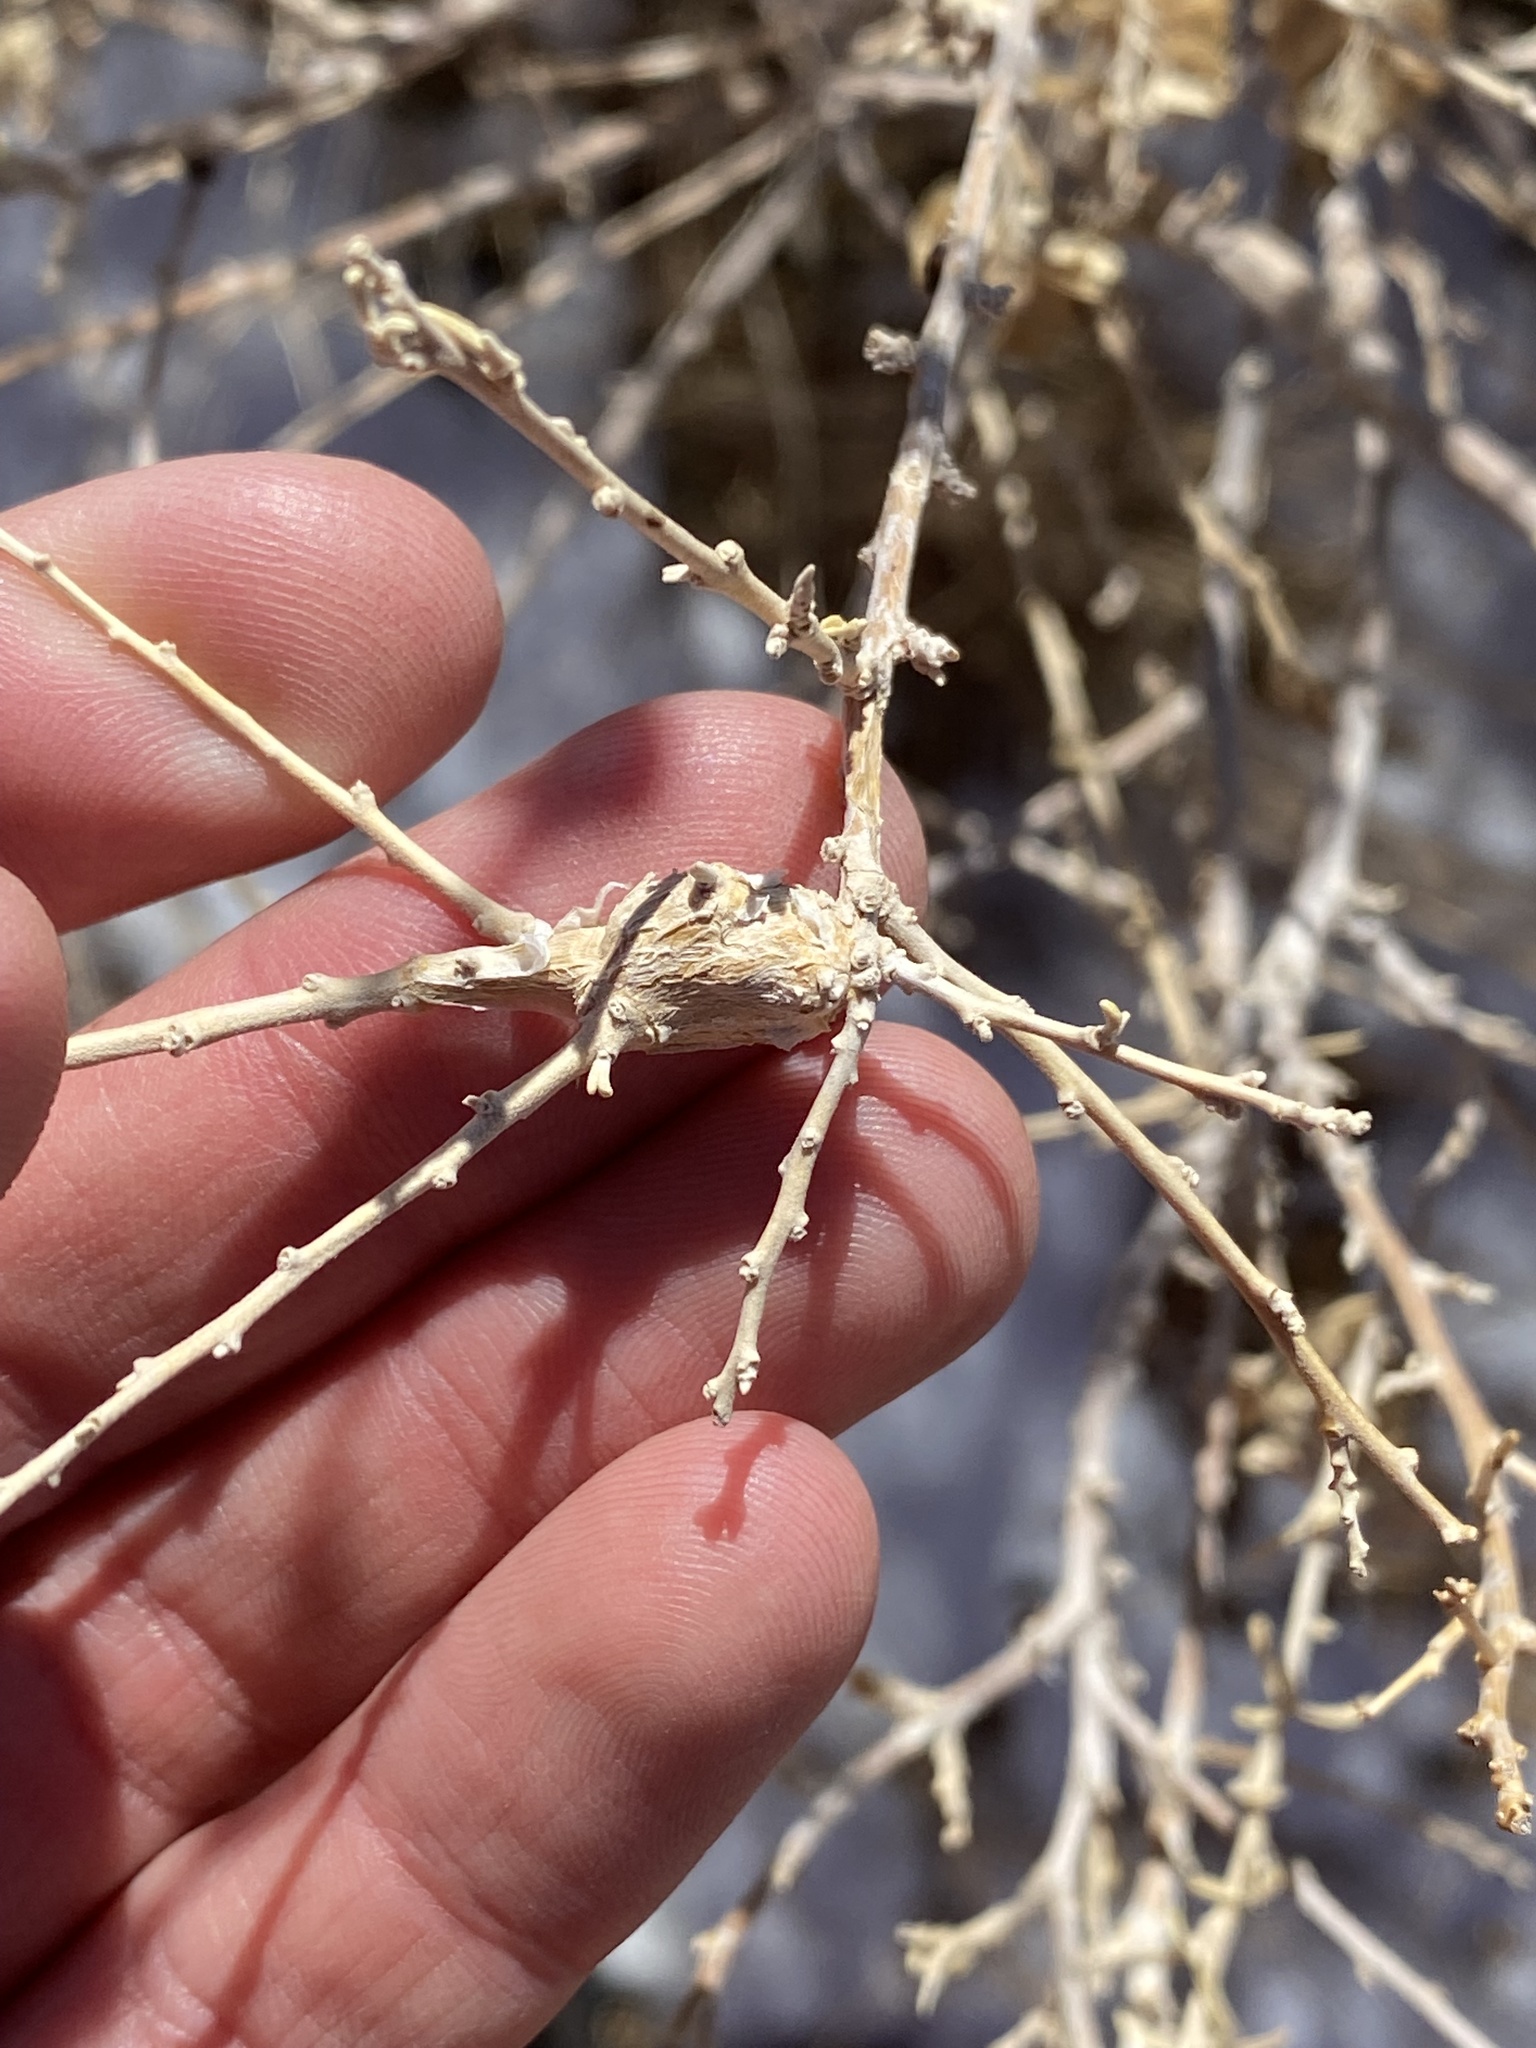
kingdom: Animalia
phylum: Arthropoda
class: Insecta
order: Diptera
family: Cecidomyiidae
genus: Asphondylia
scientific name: Asphondylia atriplicis
